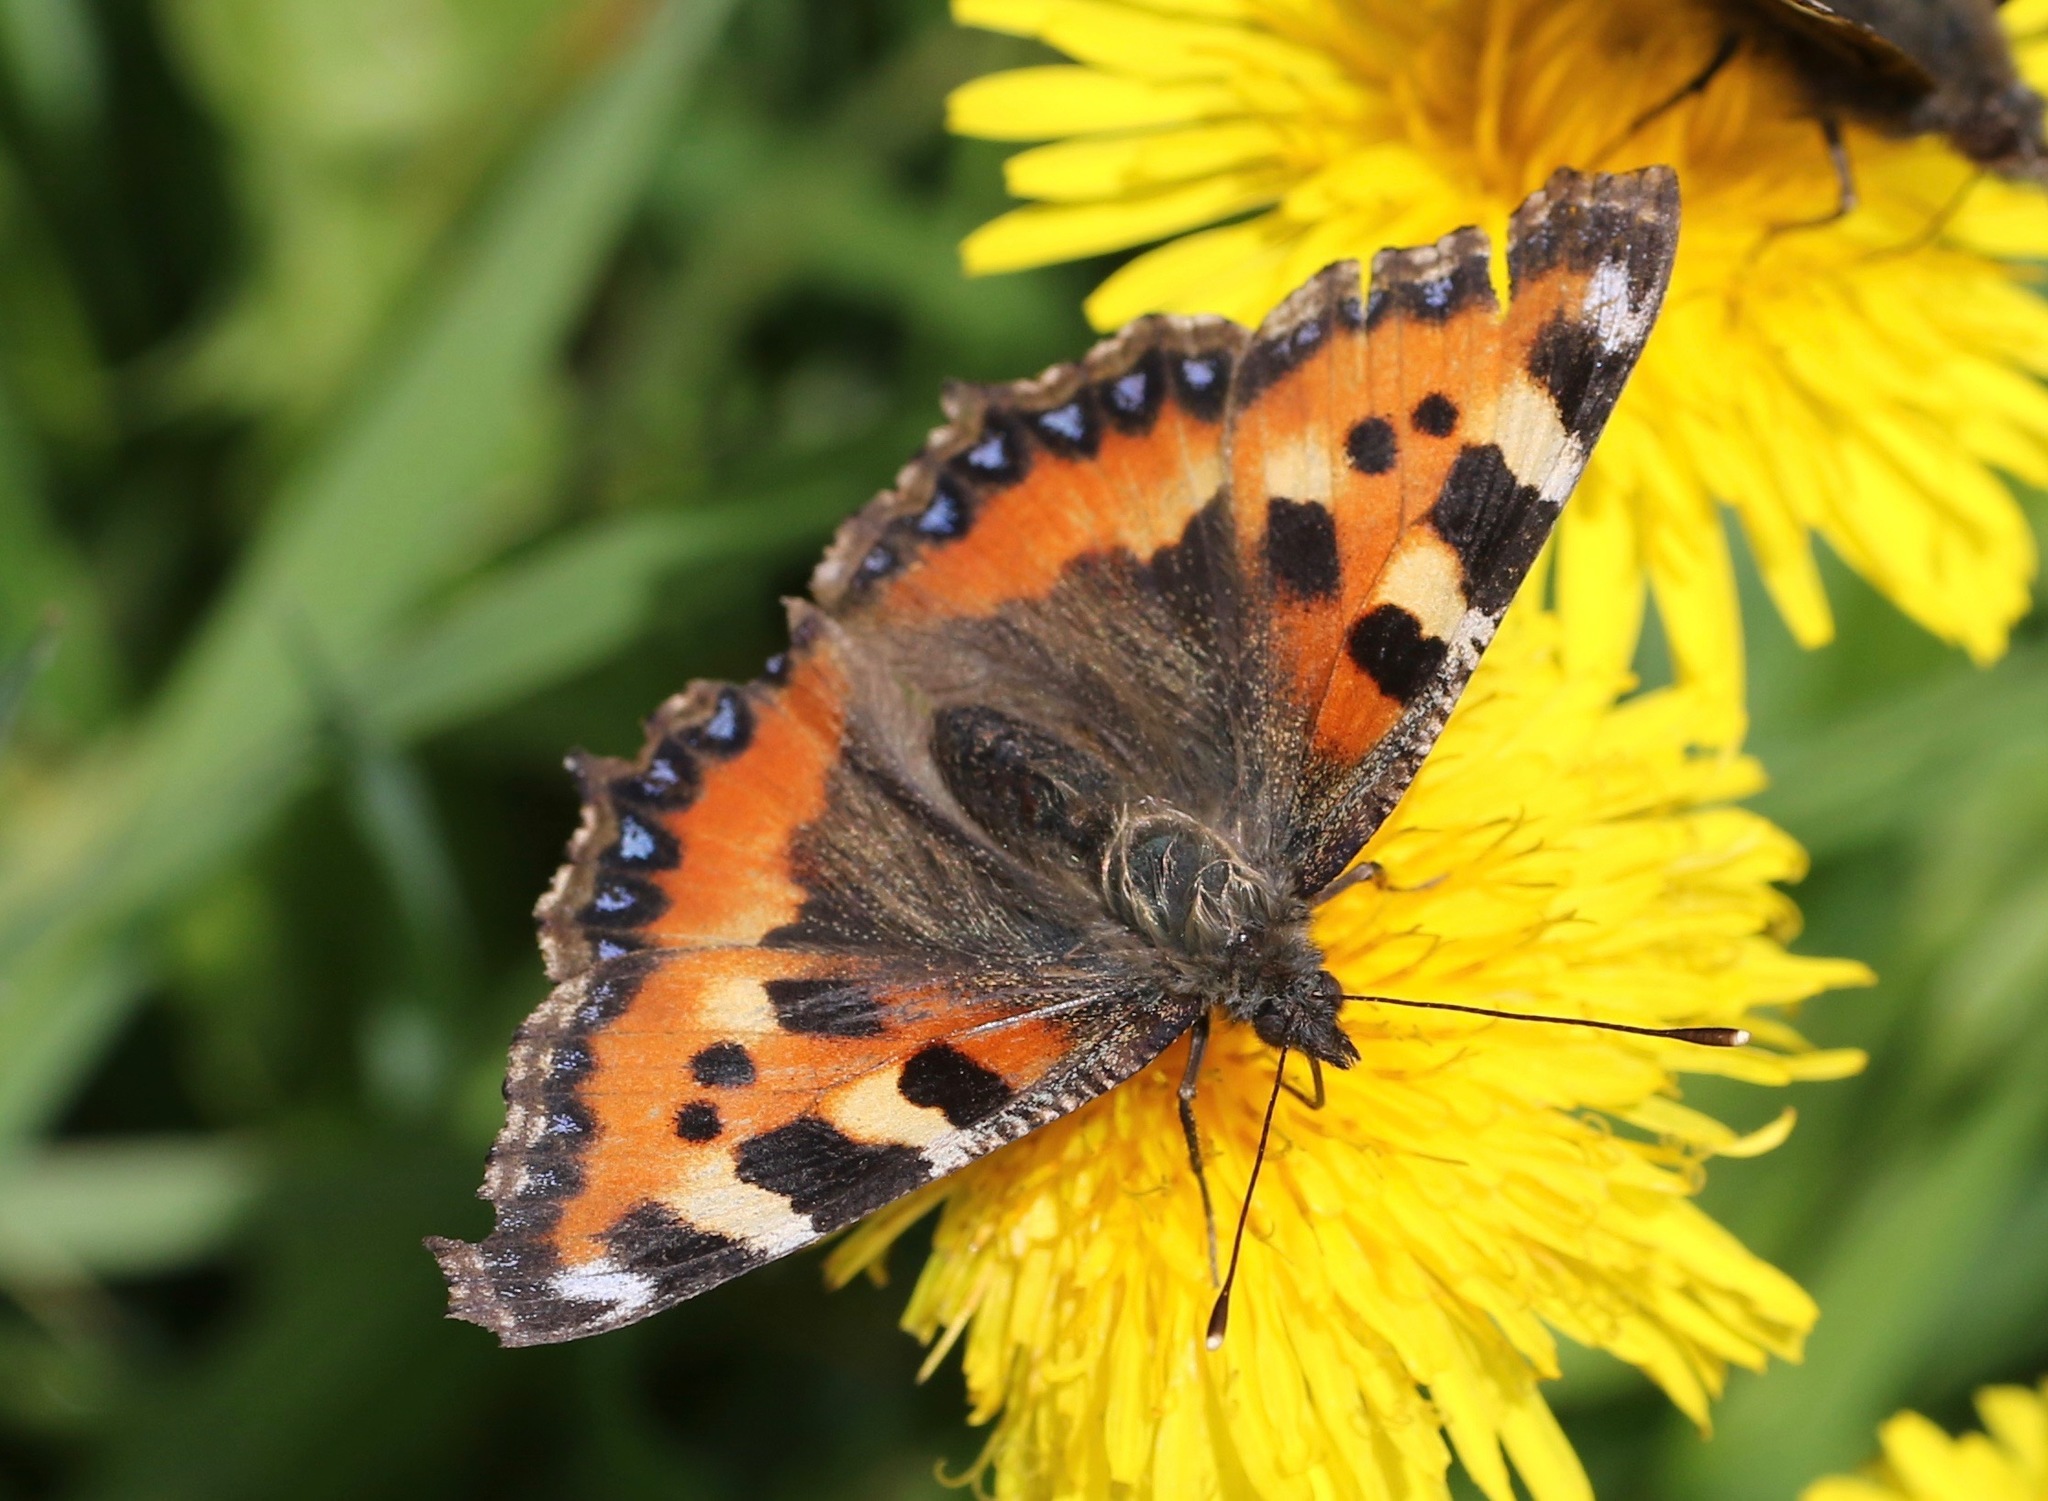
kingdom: Animalia
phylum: Arthropoda
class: Insecta
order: Lepidoptera
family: Nymphalidae
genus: Aglais
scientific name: Aglais urticae
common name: Small tortoiseshell
